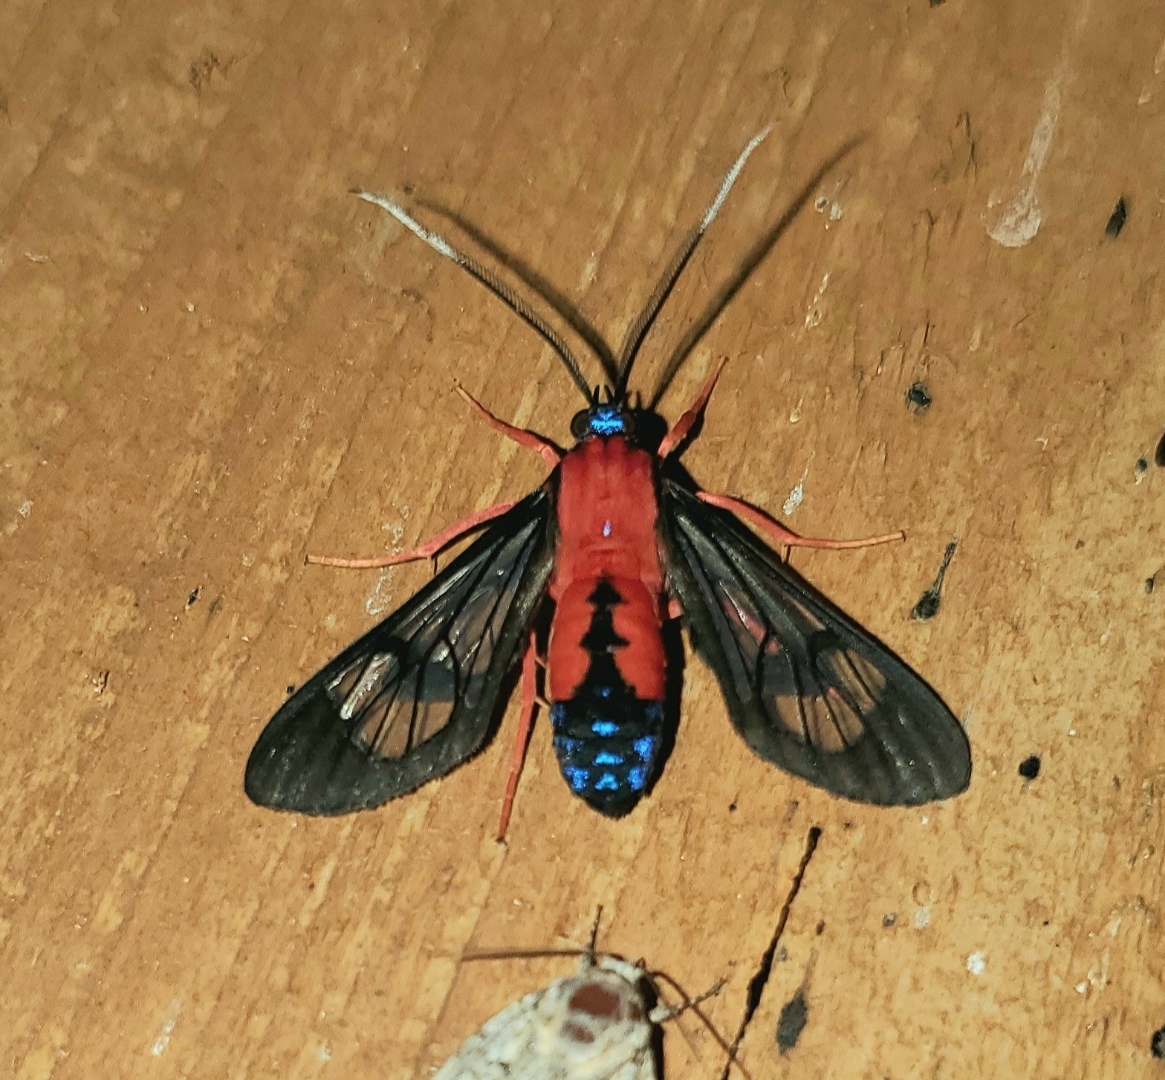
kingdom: Animalia
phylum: Arthropoda
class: Insecta
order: Lepidoptera
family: Erebidae
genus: Cosmosoma
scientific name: Cosmosoma myrodora
